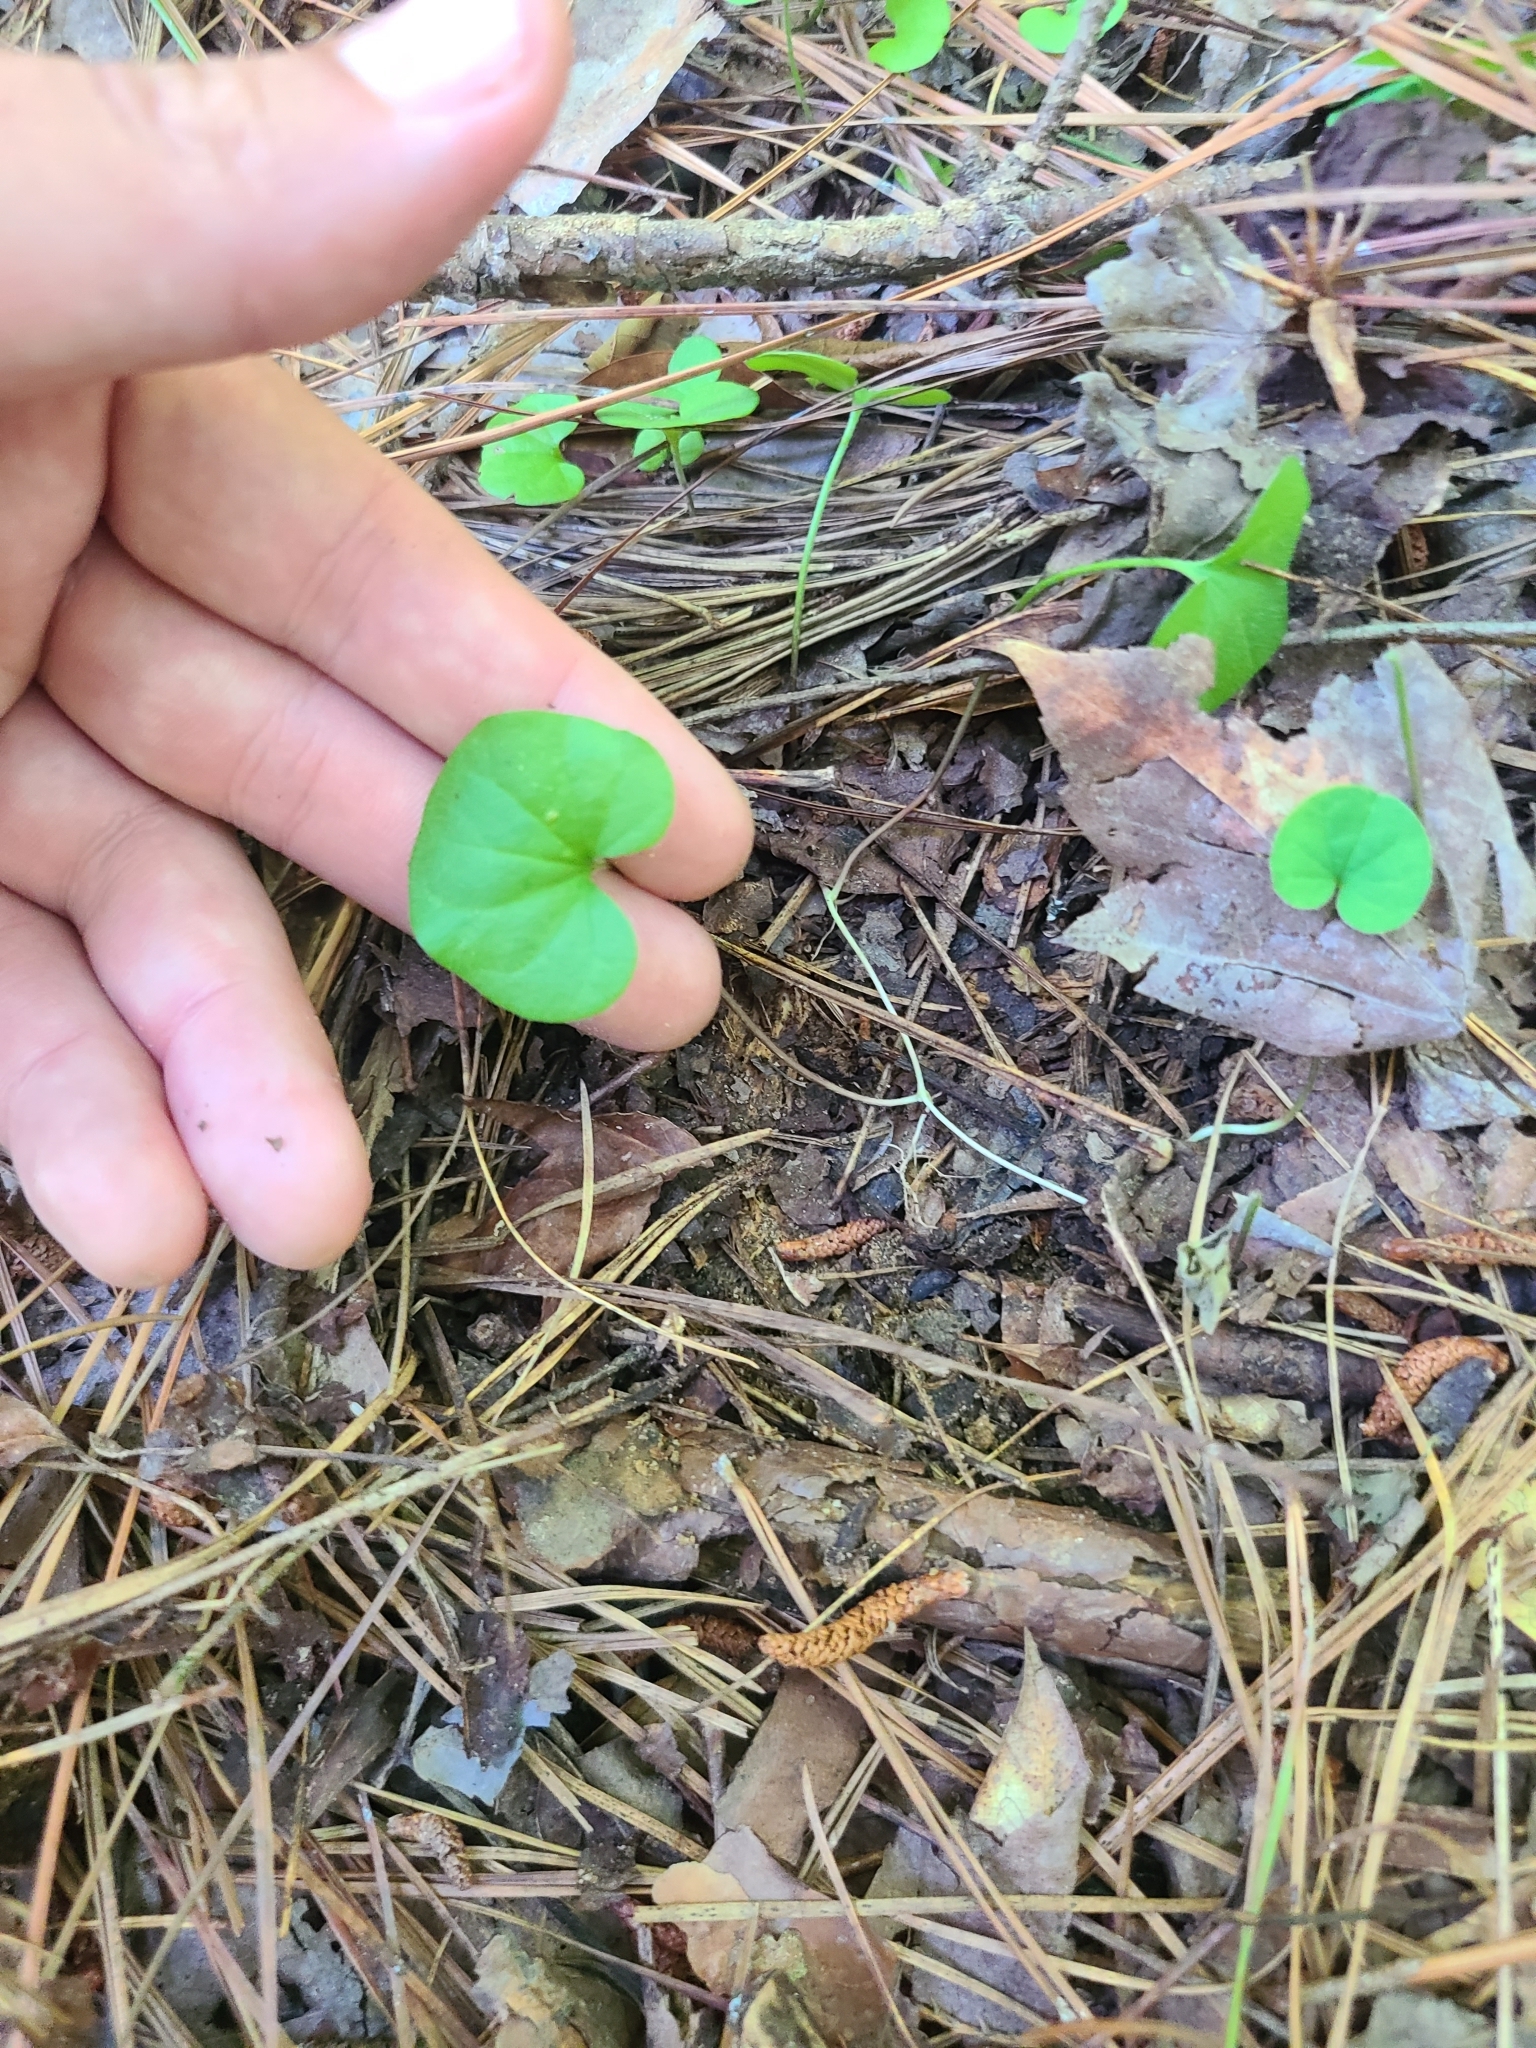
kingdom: Plantae
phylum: Tracheophyta
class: Magnoliopsida
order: Solanales
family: Convolvulaceae
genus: Dichondra
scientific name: Dichondra carolinensis
